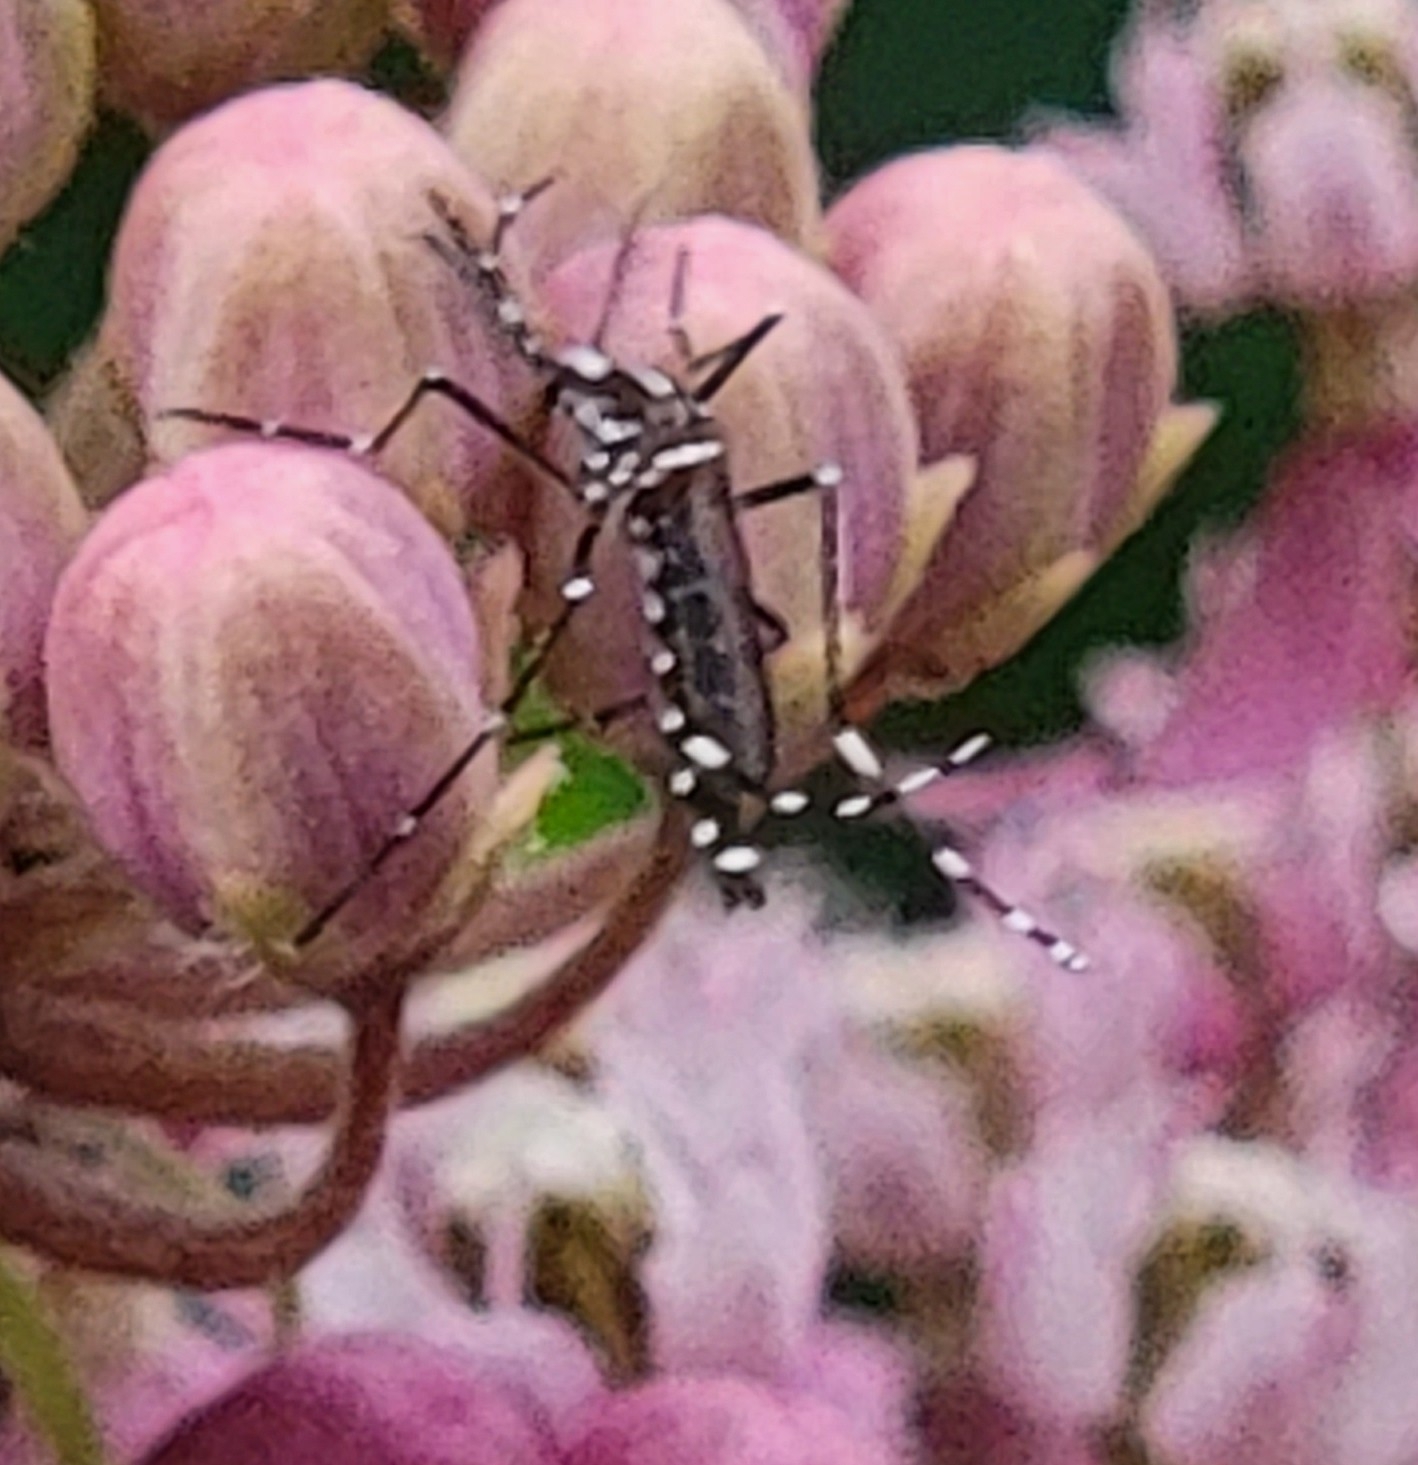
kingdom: Animalia
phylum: Arthropoda
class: Insecta
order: Diptera
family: Culicidae
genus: Aedes
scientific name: Aedes albopictus
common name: Tiger mosquito
